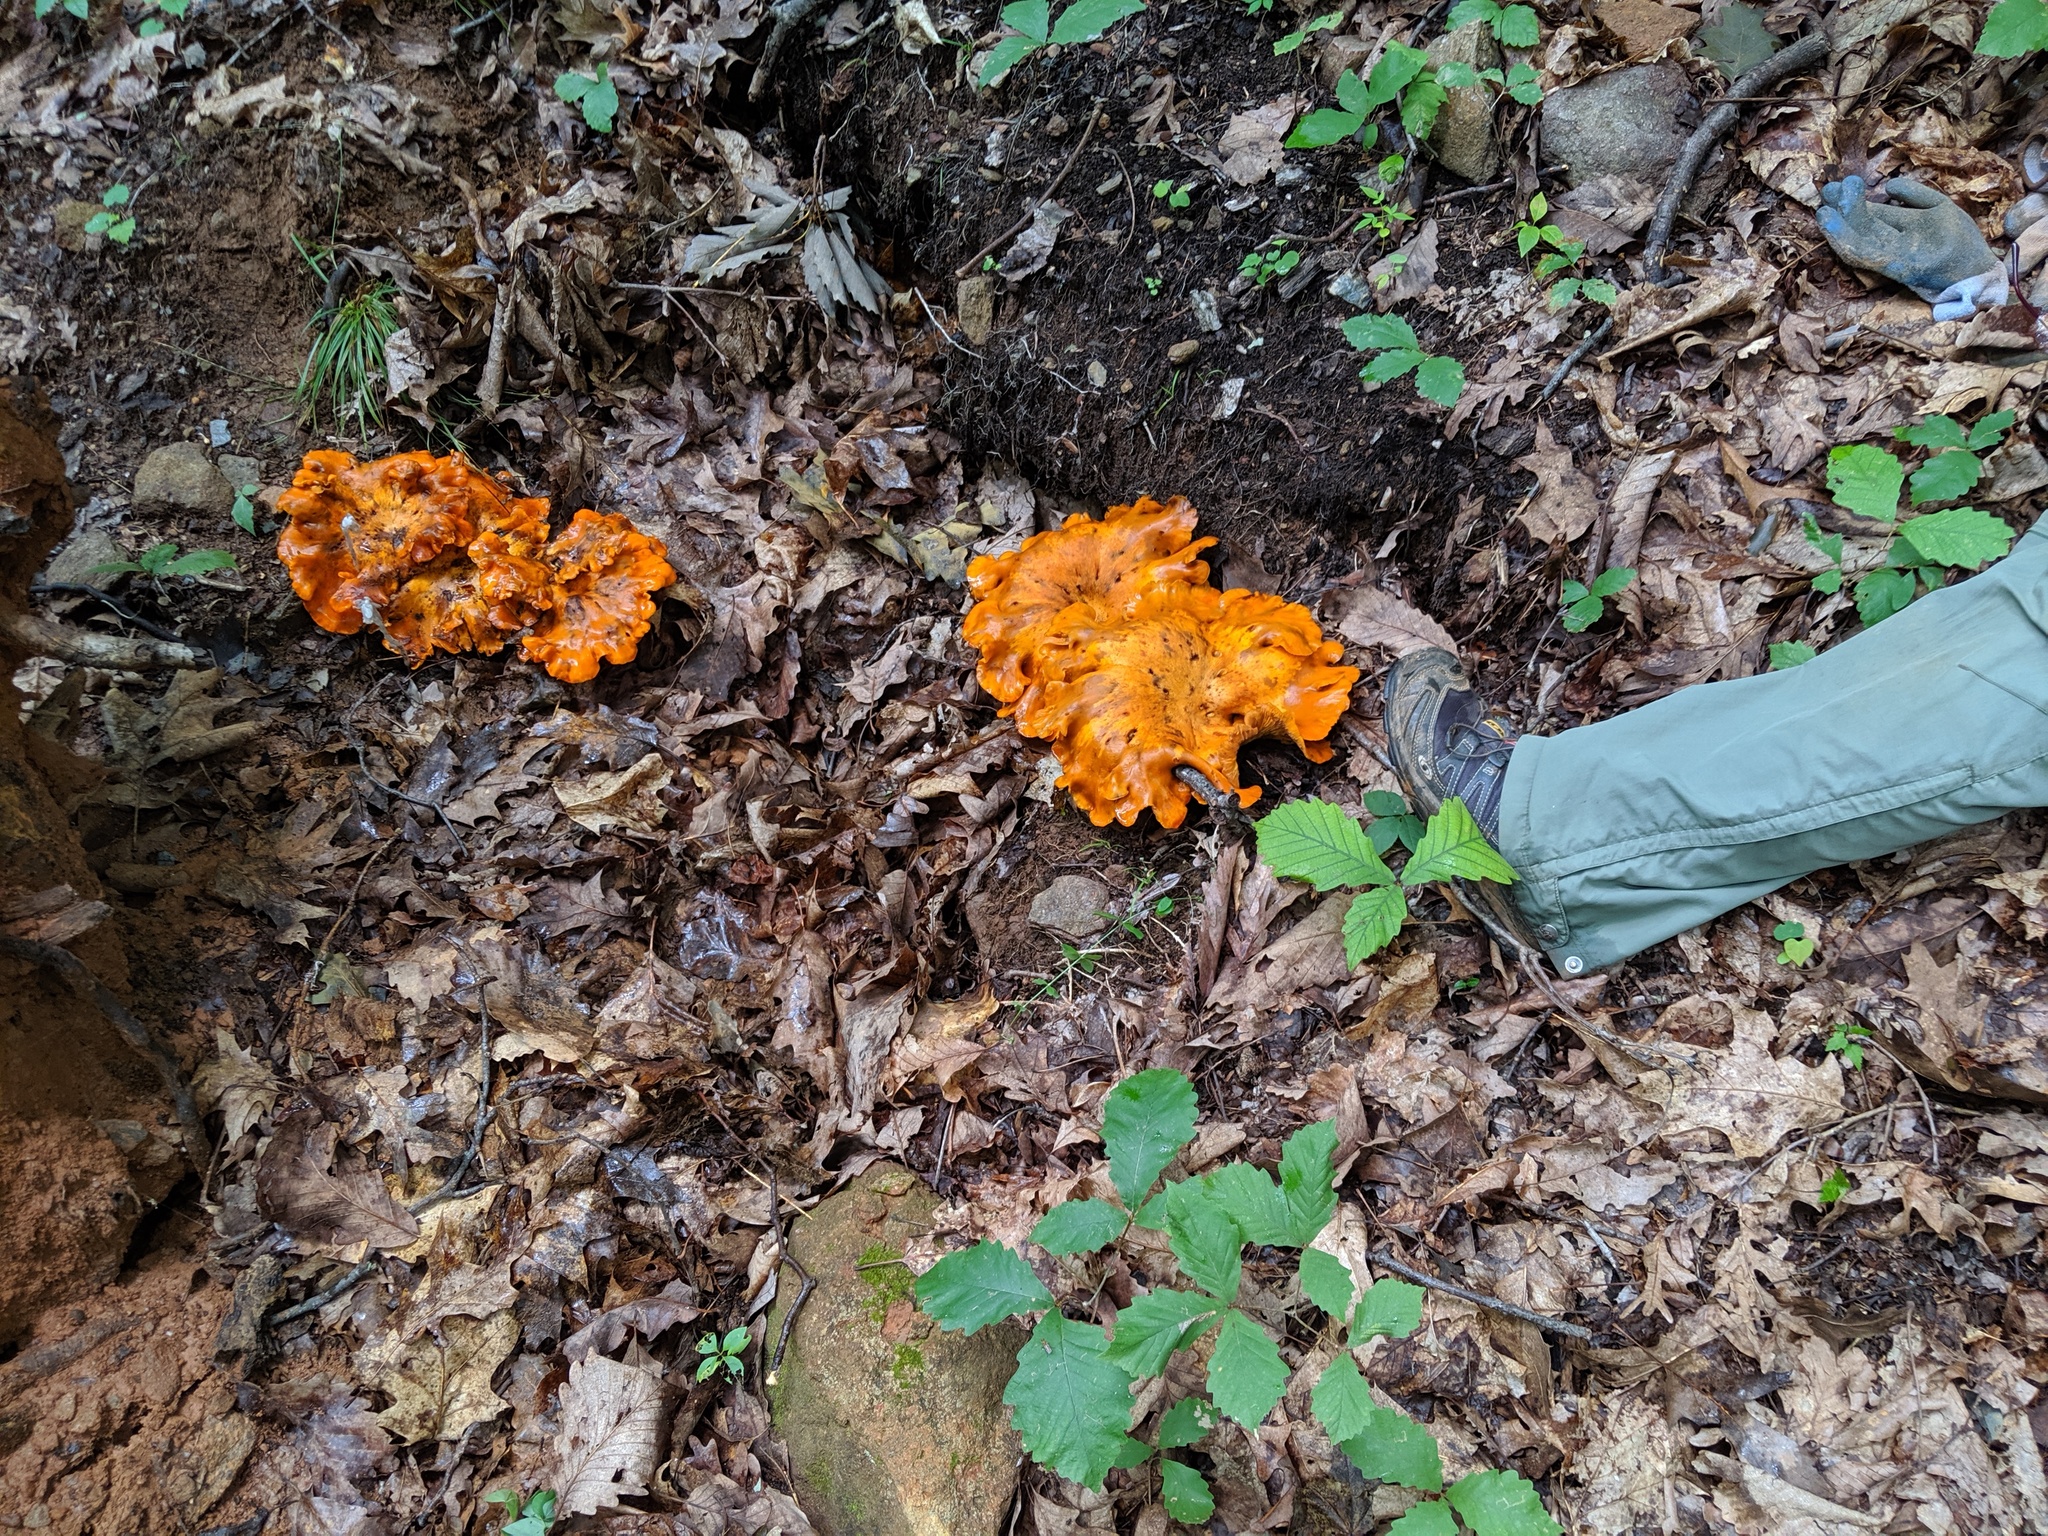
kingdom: Fungi
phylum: Basidiomycota
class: Agaricomycetes
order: Agaricales
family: Omphalotaceae
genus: Omphalotus
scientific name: Omphalotus illudens
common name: Jack o lantern
